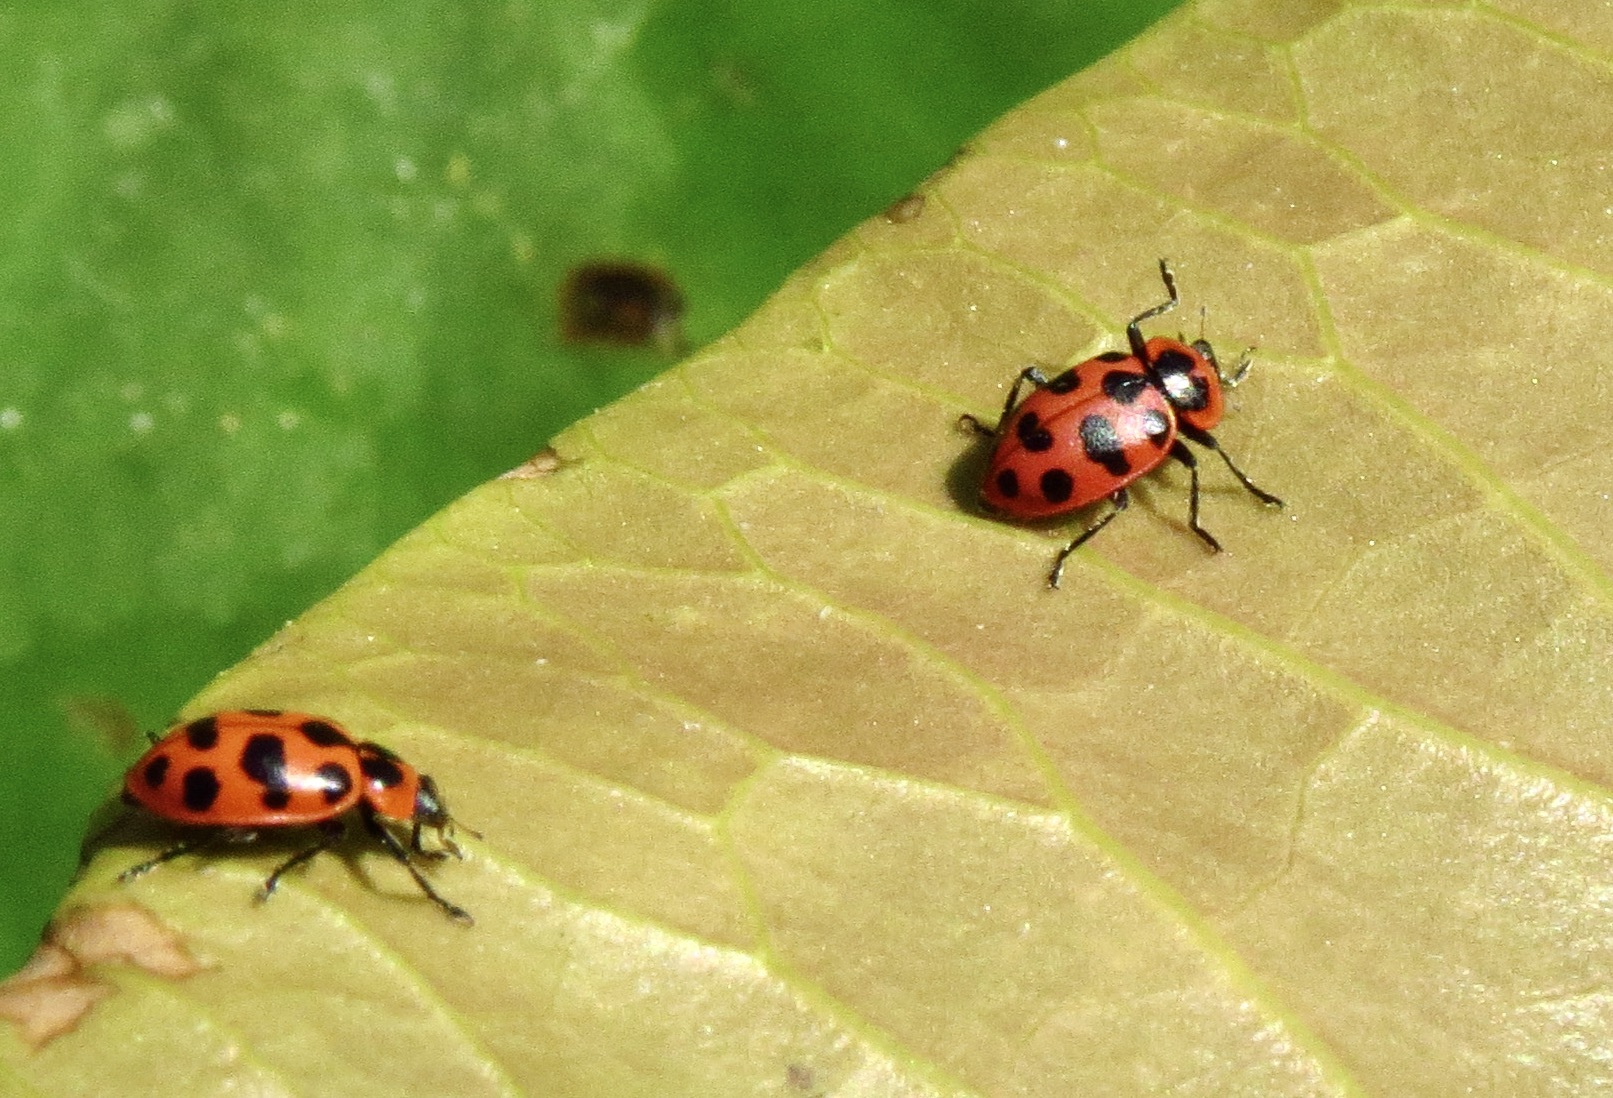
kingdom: Animalia
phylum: Arthropoda
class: Insecta
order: Coleoptera
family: Coccinellidae
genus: Coleomegilla
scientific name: Coleomegilla maculata
